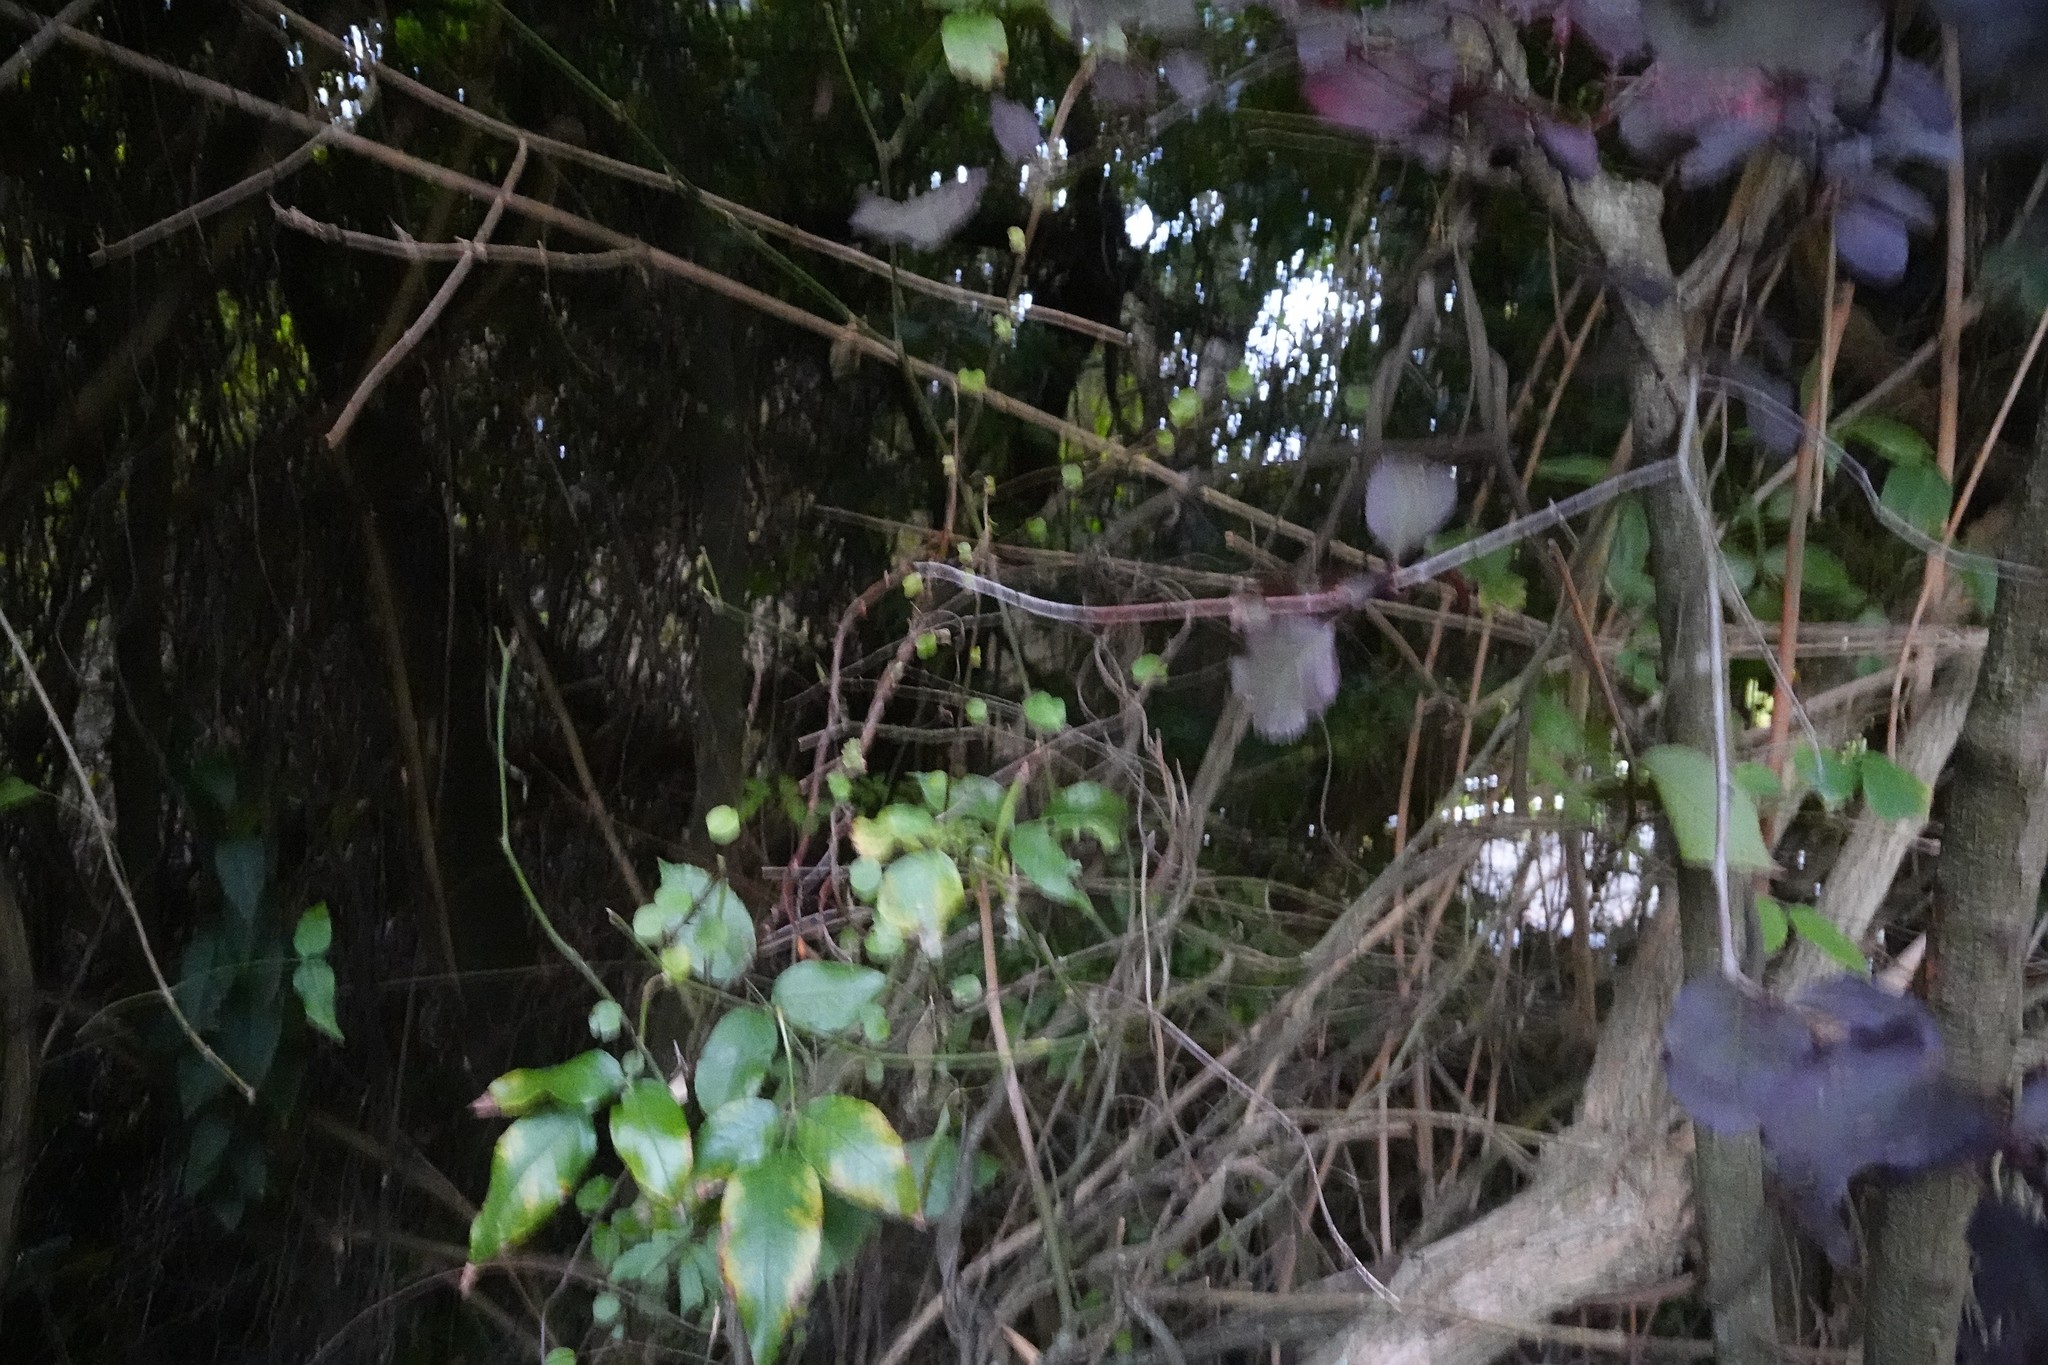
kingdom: Plantae
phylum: Tracheophyta
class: Magnoliopsida
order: Caryophyllales
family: Polygonaceae
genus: Muehlenbeckia
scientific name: Muehlenbeckia australis
